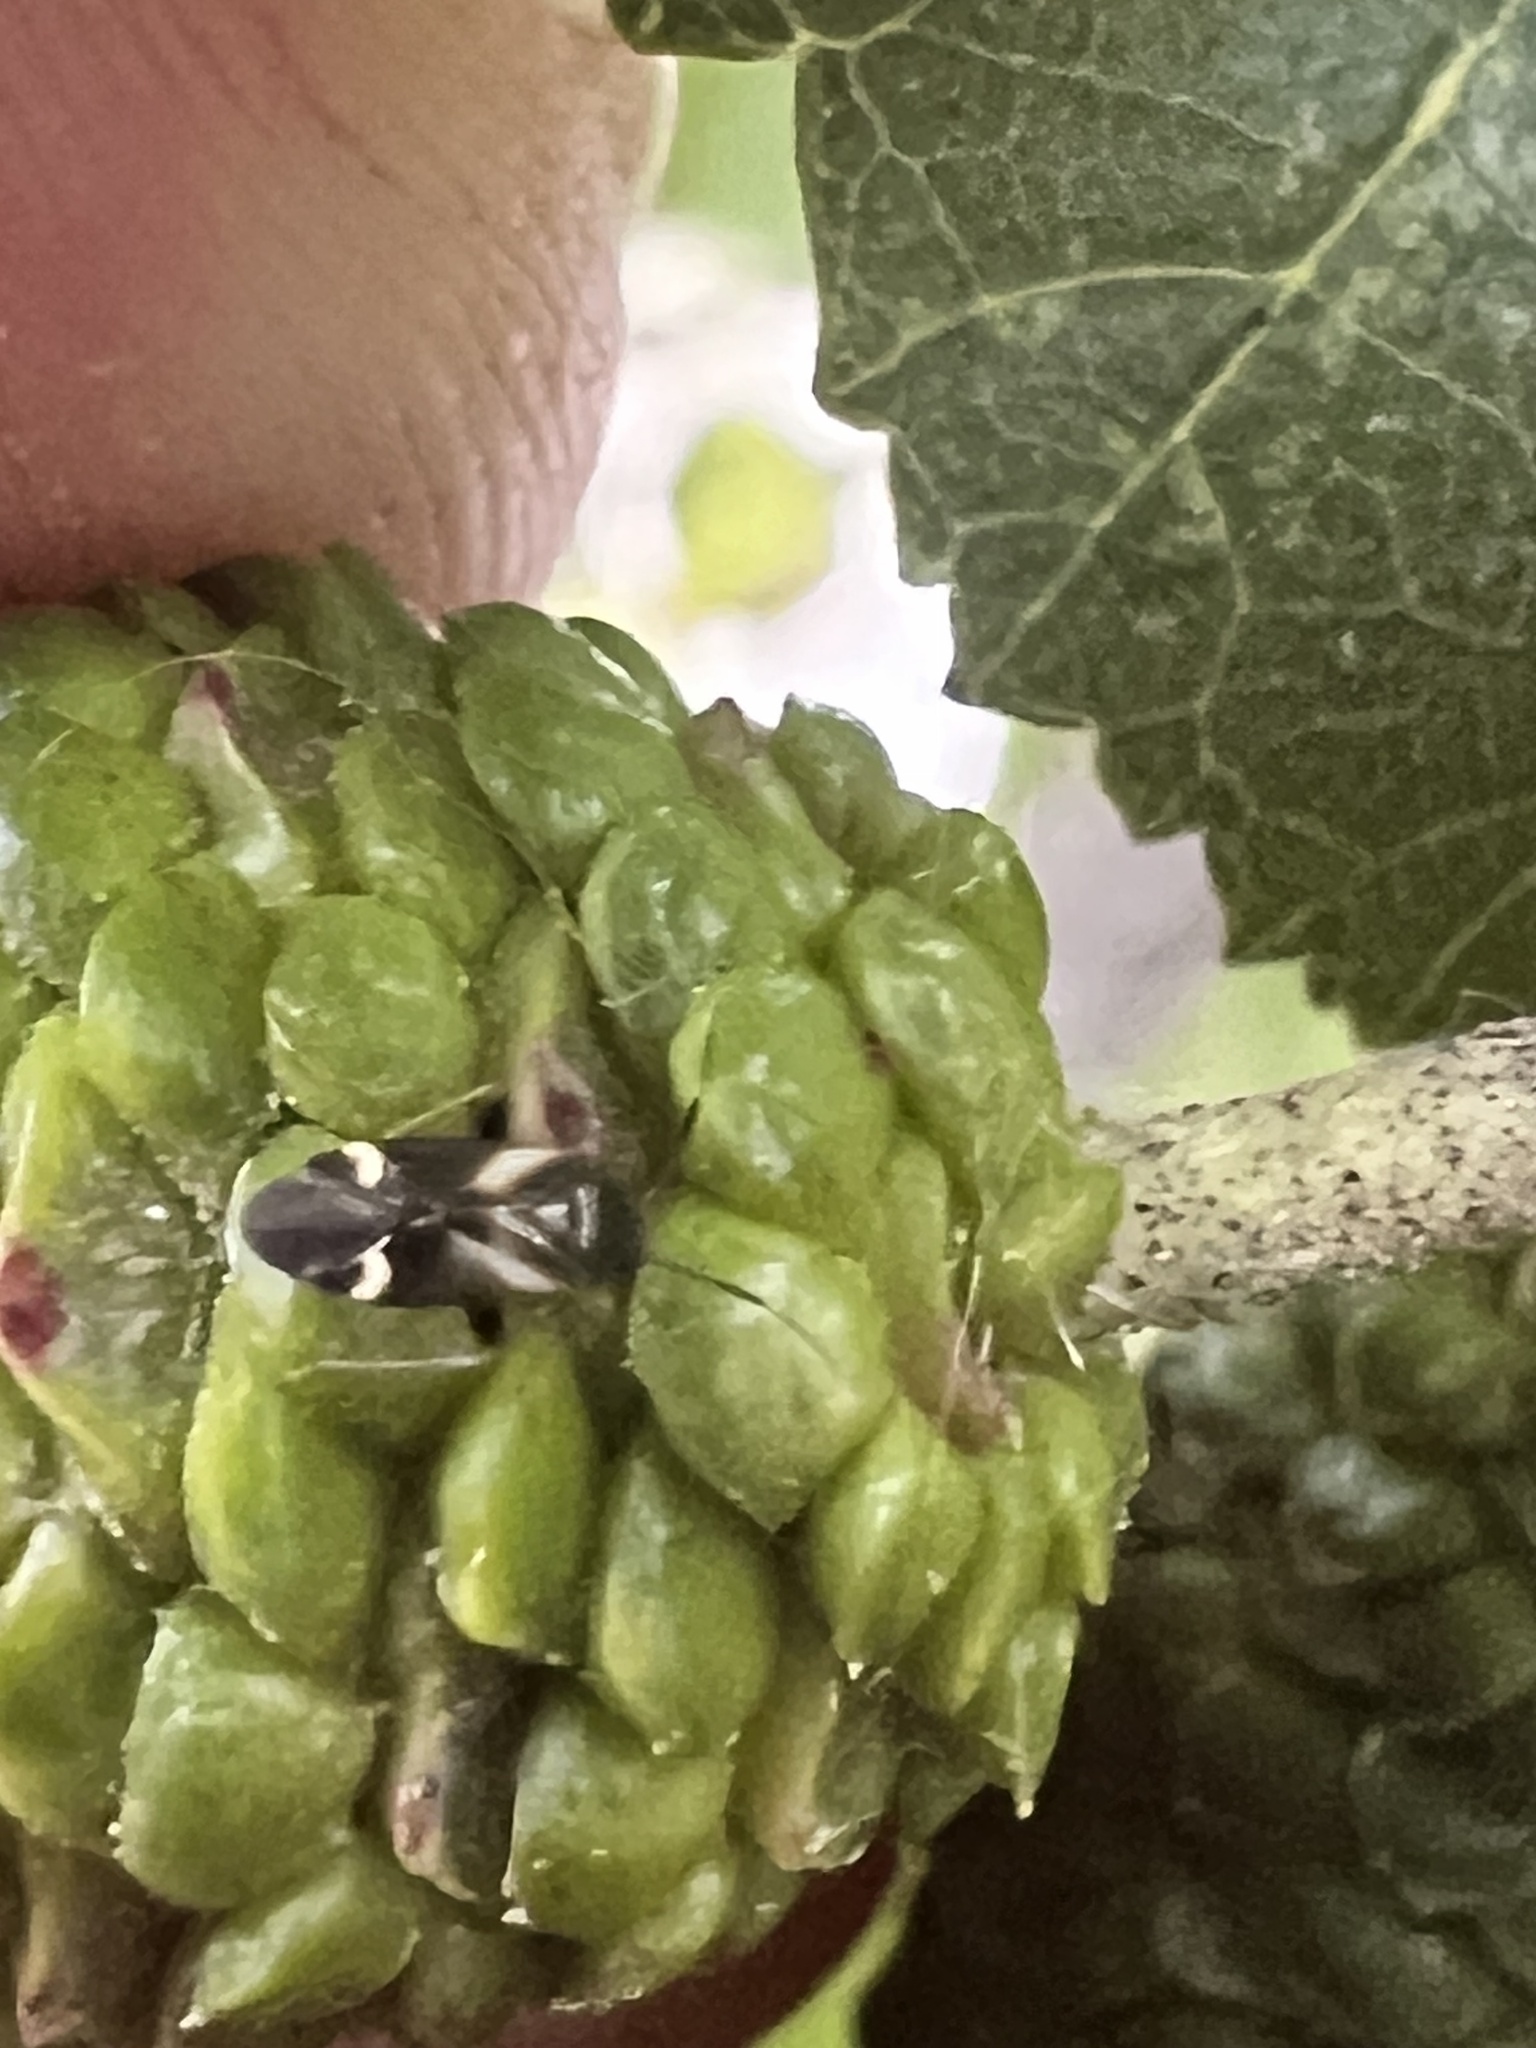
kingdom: Animalia
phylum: Arthropoda
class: Insecta
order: Hemiptera
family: Miridae
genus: Ausejanus
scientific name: Ausejanus albisignatus
